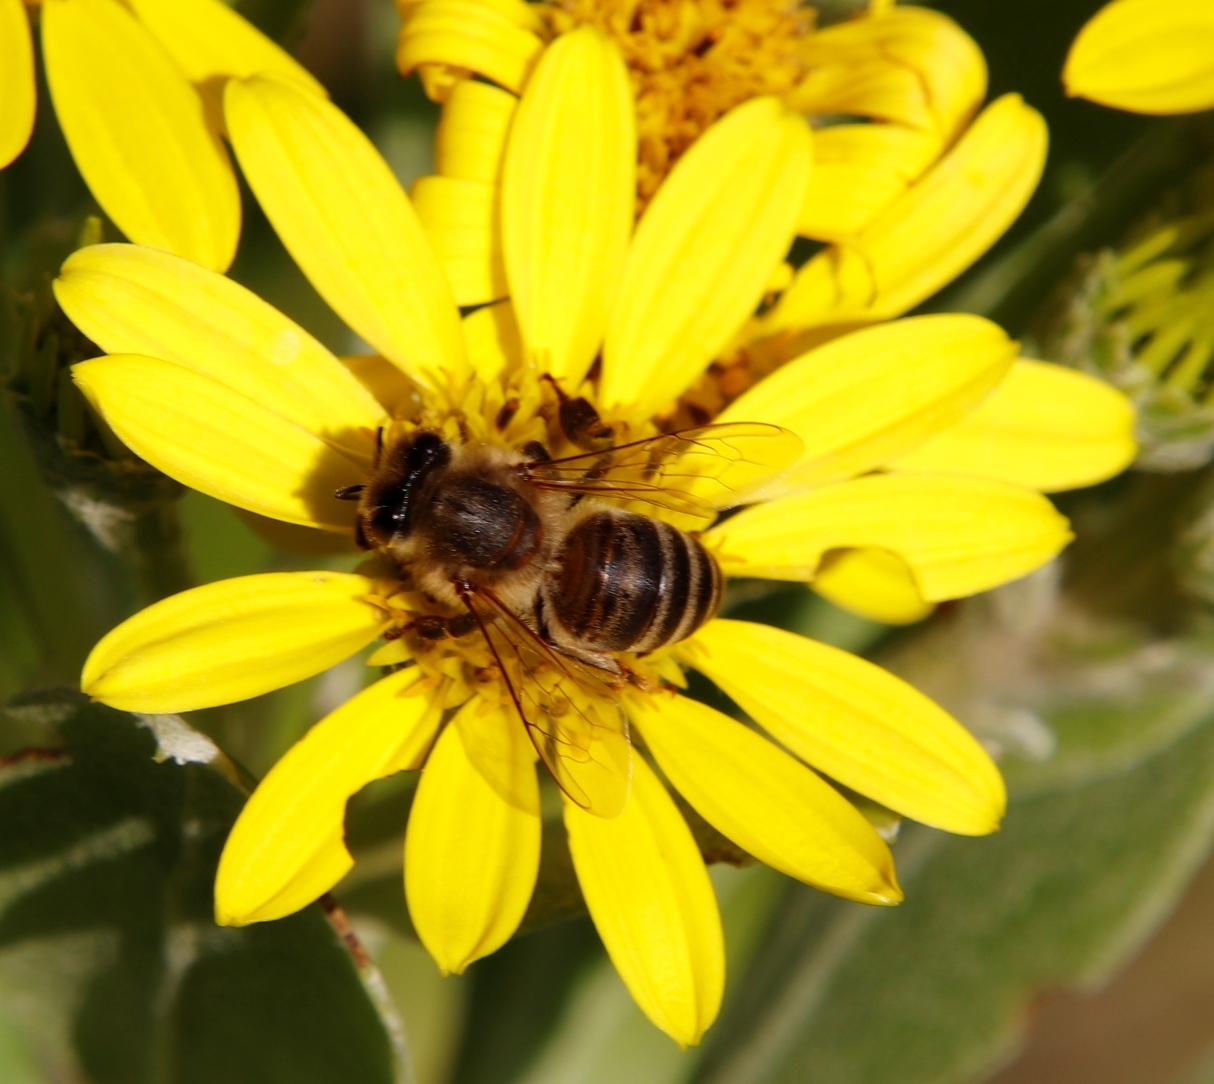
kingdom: Animalia
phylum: Arthropoda
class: Insecta
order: Hymenoptera
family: Apidae
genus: Apis
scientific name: Apis mellifera
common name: Honey bee
